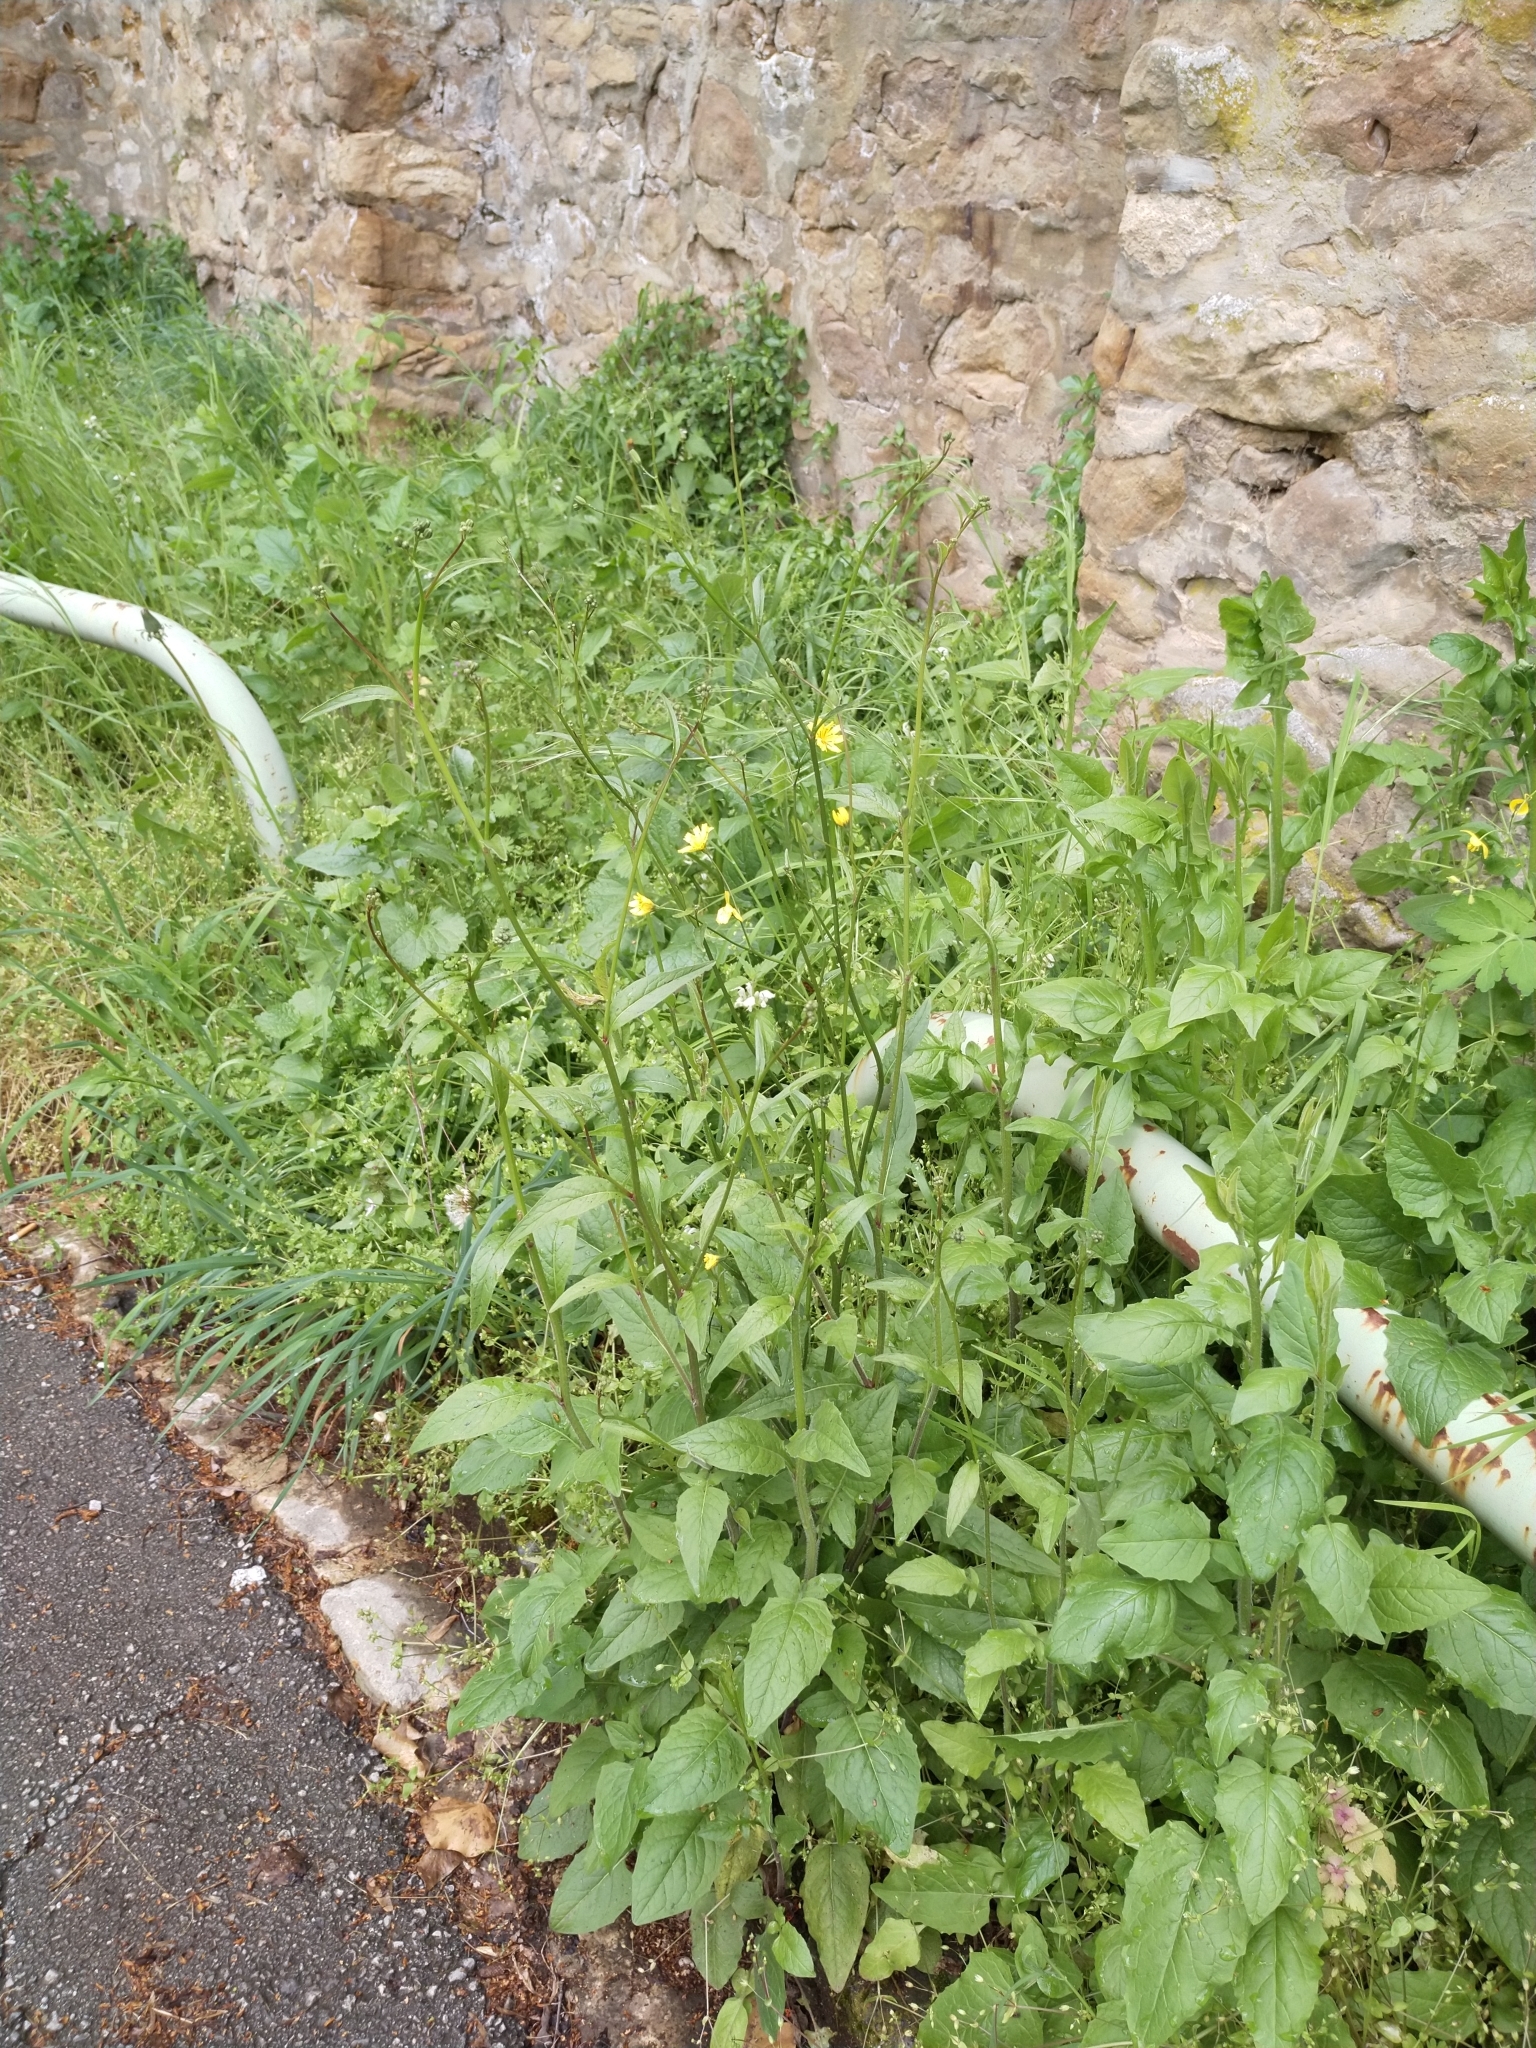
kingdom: Plantae
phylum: Tracheophyta
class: Magnoliopsida
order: Asterales
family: Asteraceae
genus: Lapsana
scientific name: Lapsana communis
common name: Nipplewort
